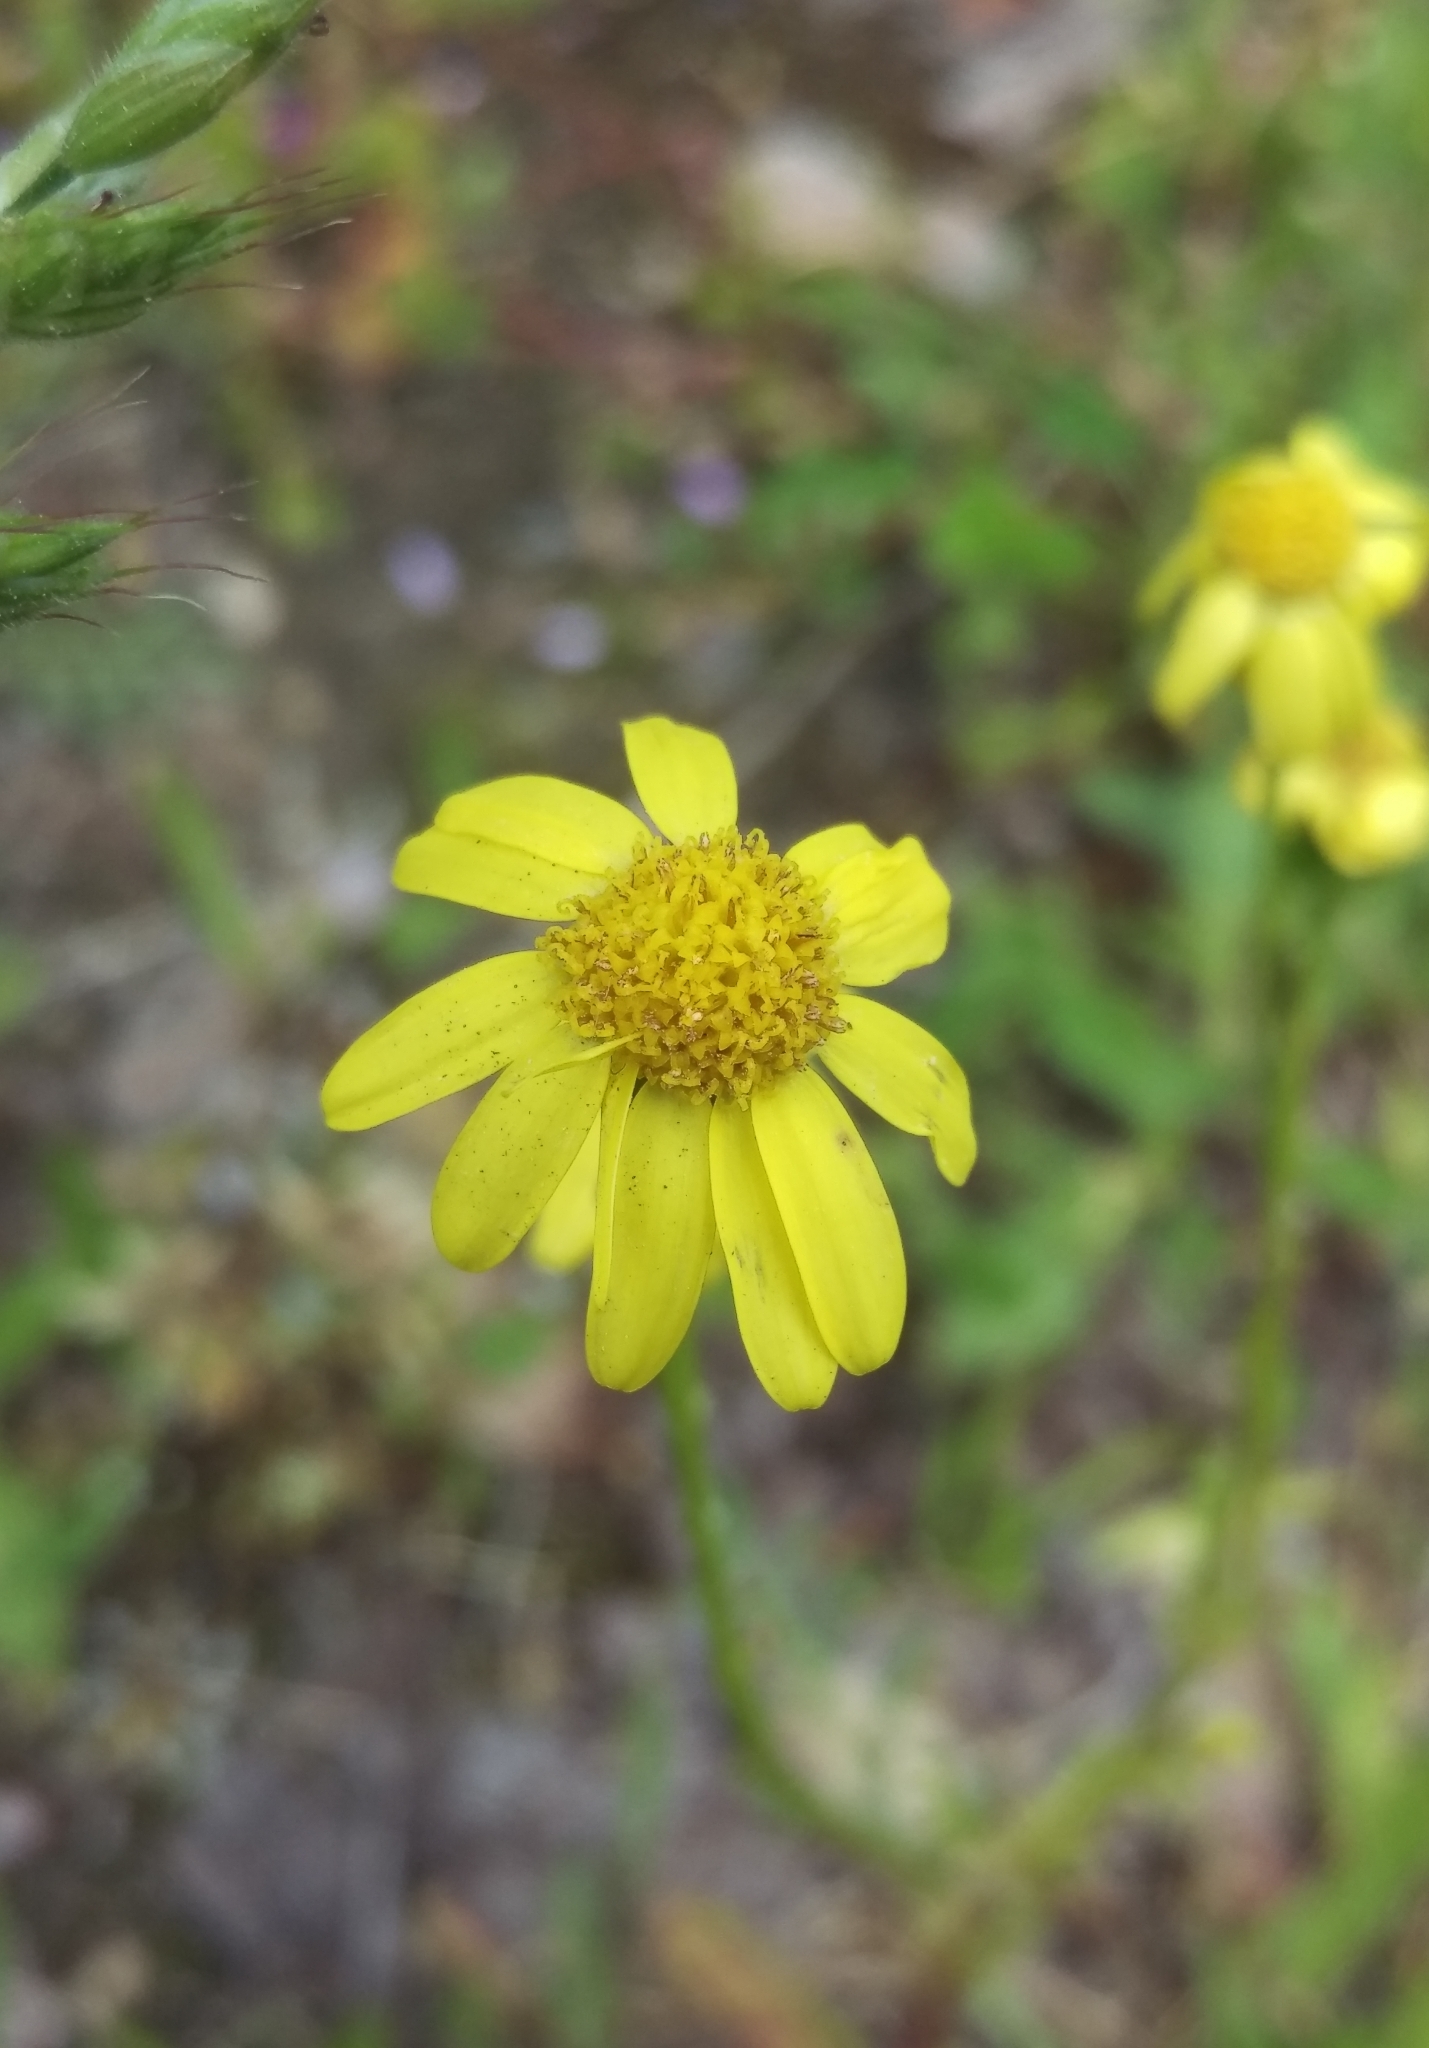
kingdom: Plantae
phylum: Tracheophyta
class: Magnoliopsida
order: Asterales
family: Asteraceae
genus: Senecio
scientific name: Senecio vernalis
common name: Eastern groundsel
